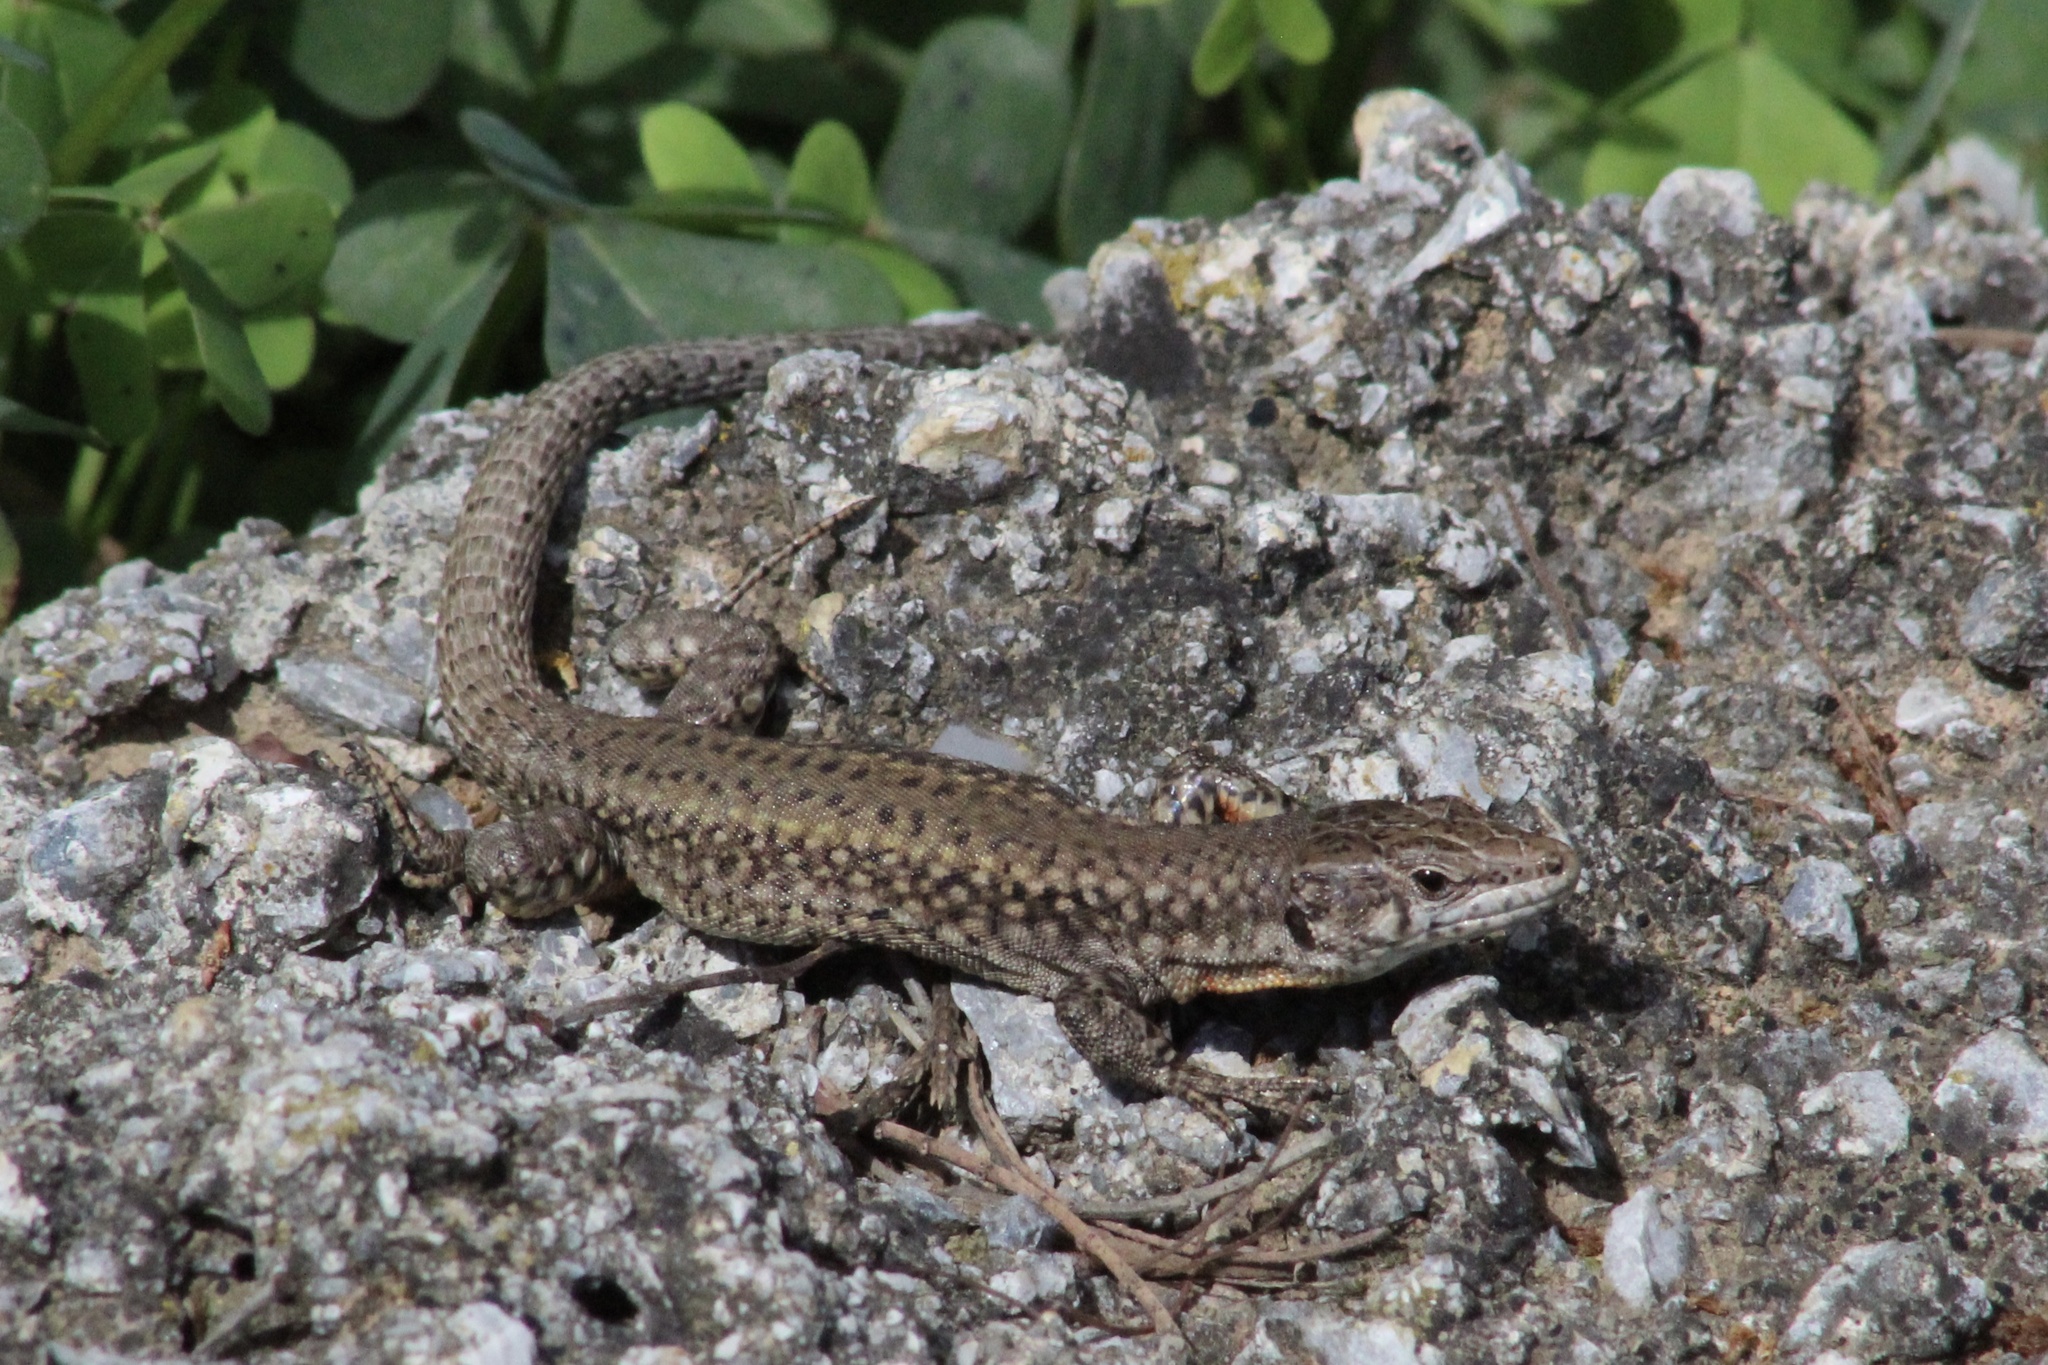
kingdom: Animalia
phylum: Chordata
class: Squamata
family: Lacertidae
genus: Podarcis
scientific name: Podarcis vaucheri
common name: Vaucher's wall lizard
